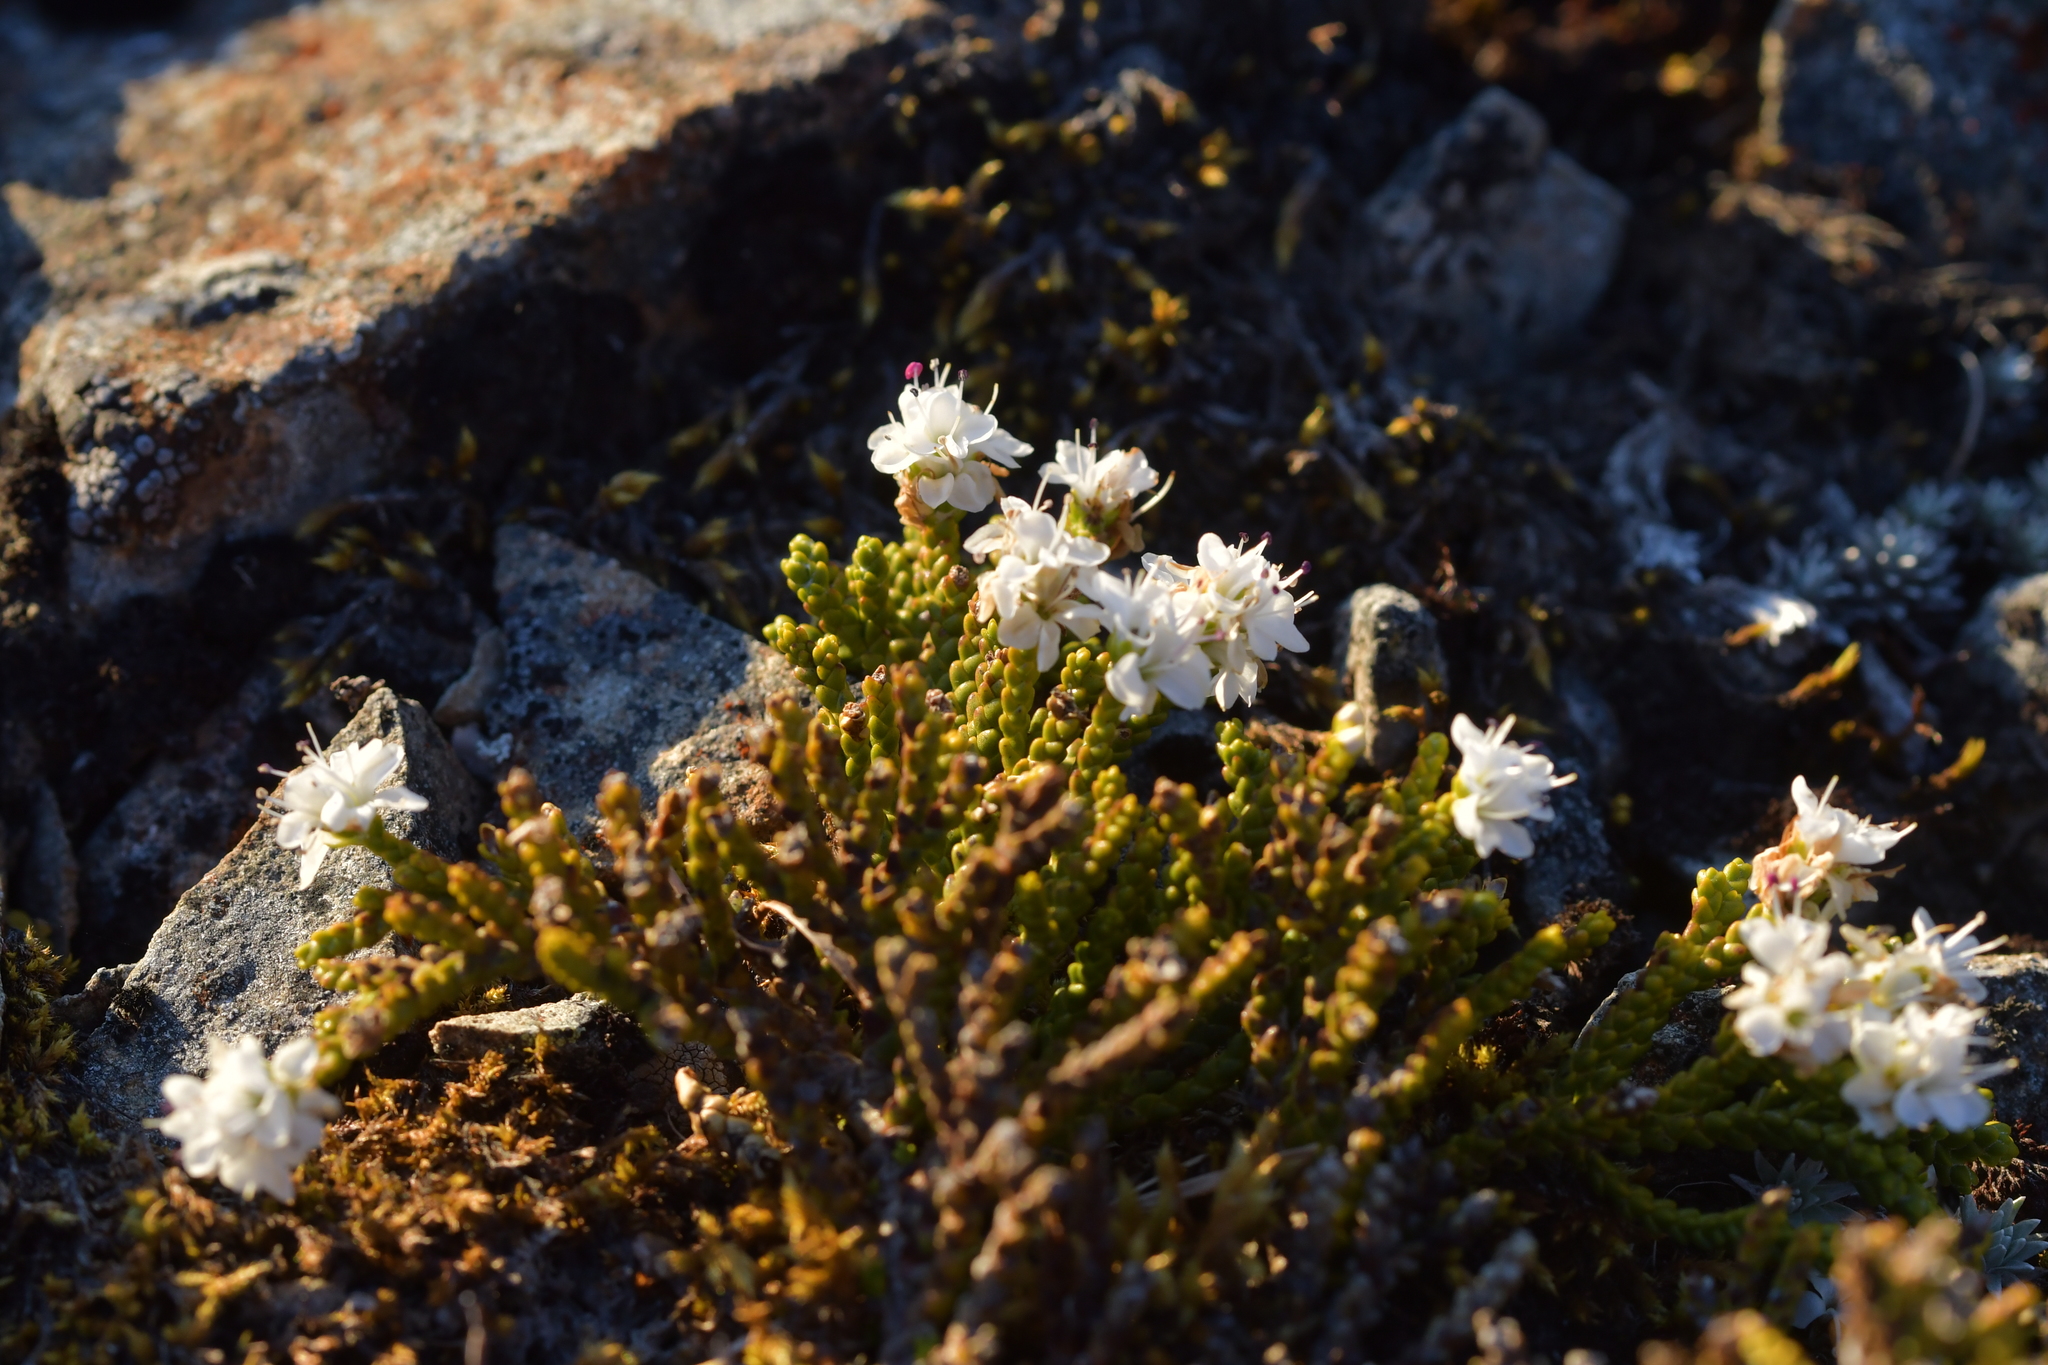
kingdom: Plantae
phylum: Tracheophyta
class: Magnoliopsida
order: Lamiales
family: Plantaginaceae
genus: Veronica
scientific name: Veronica tetragona
